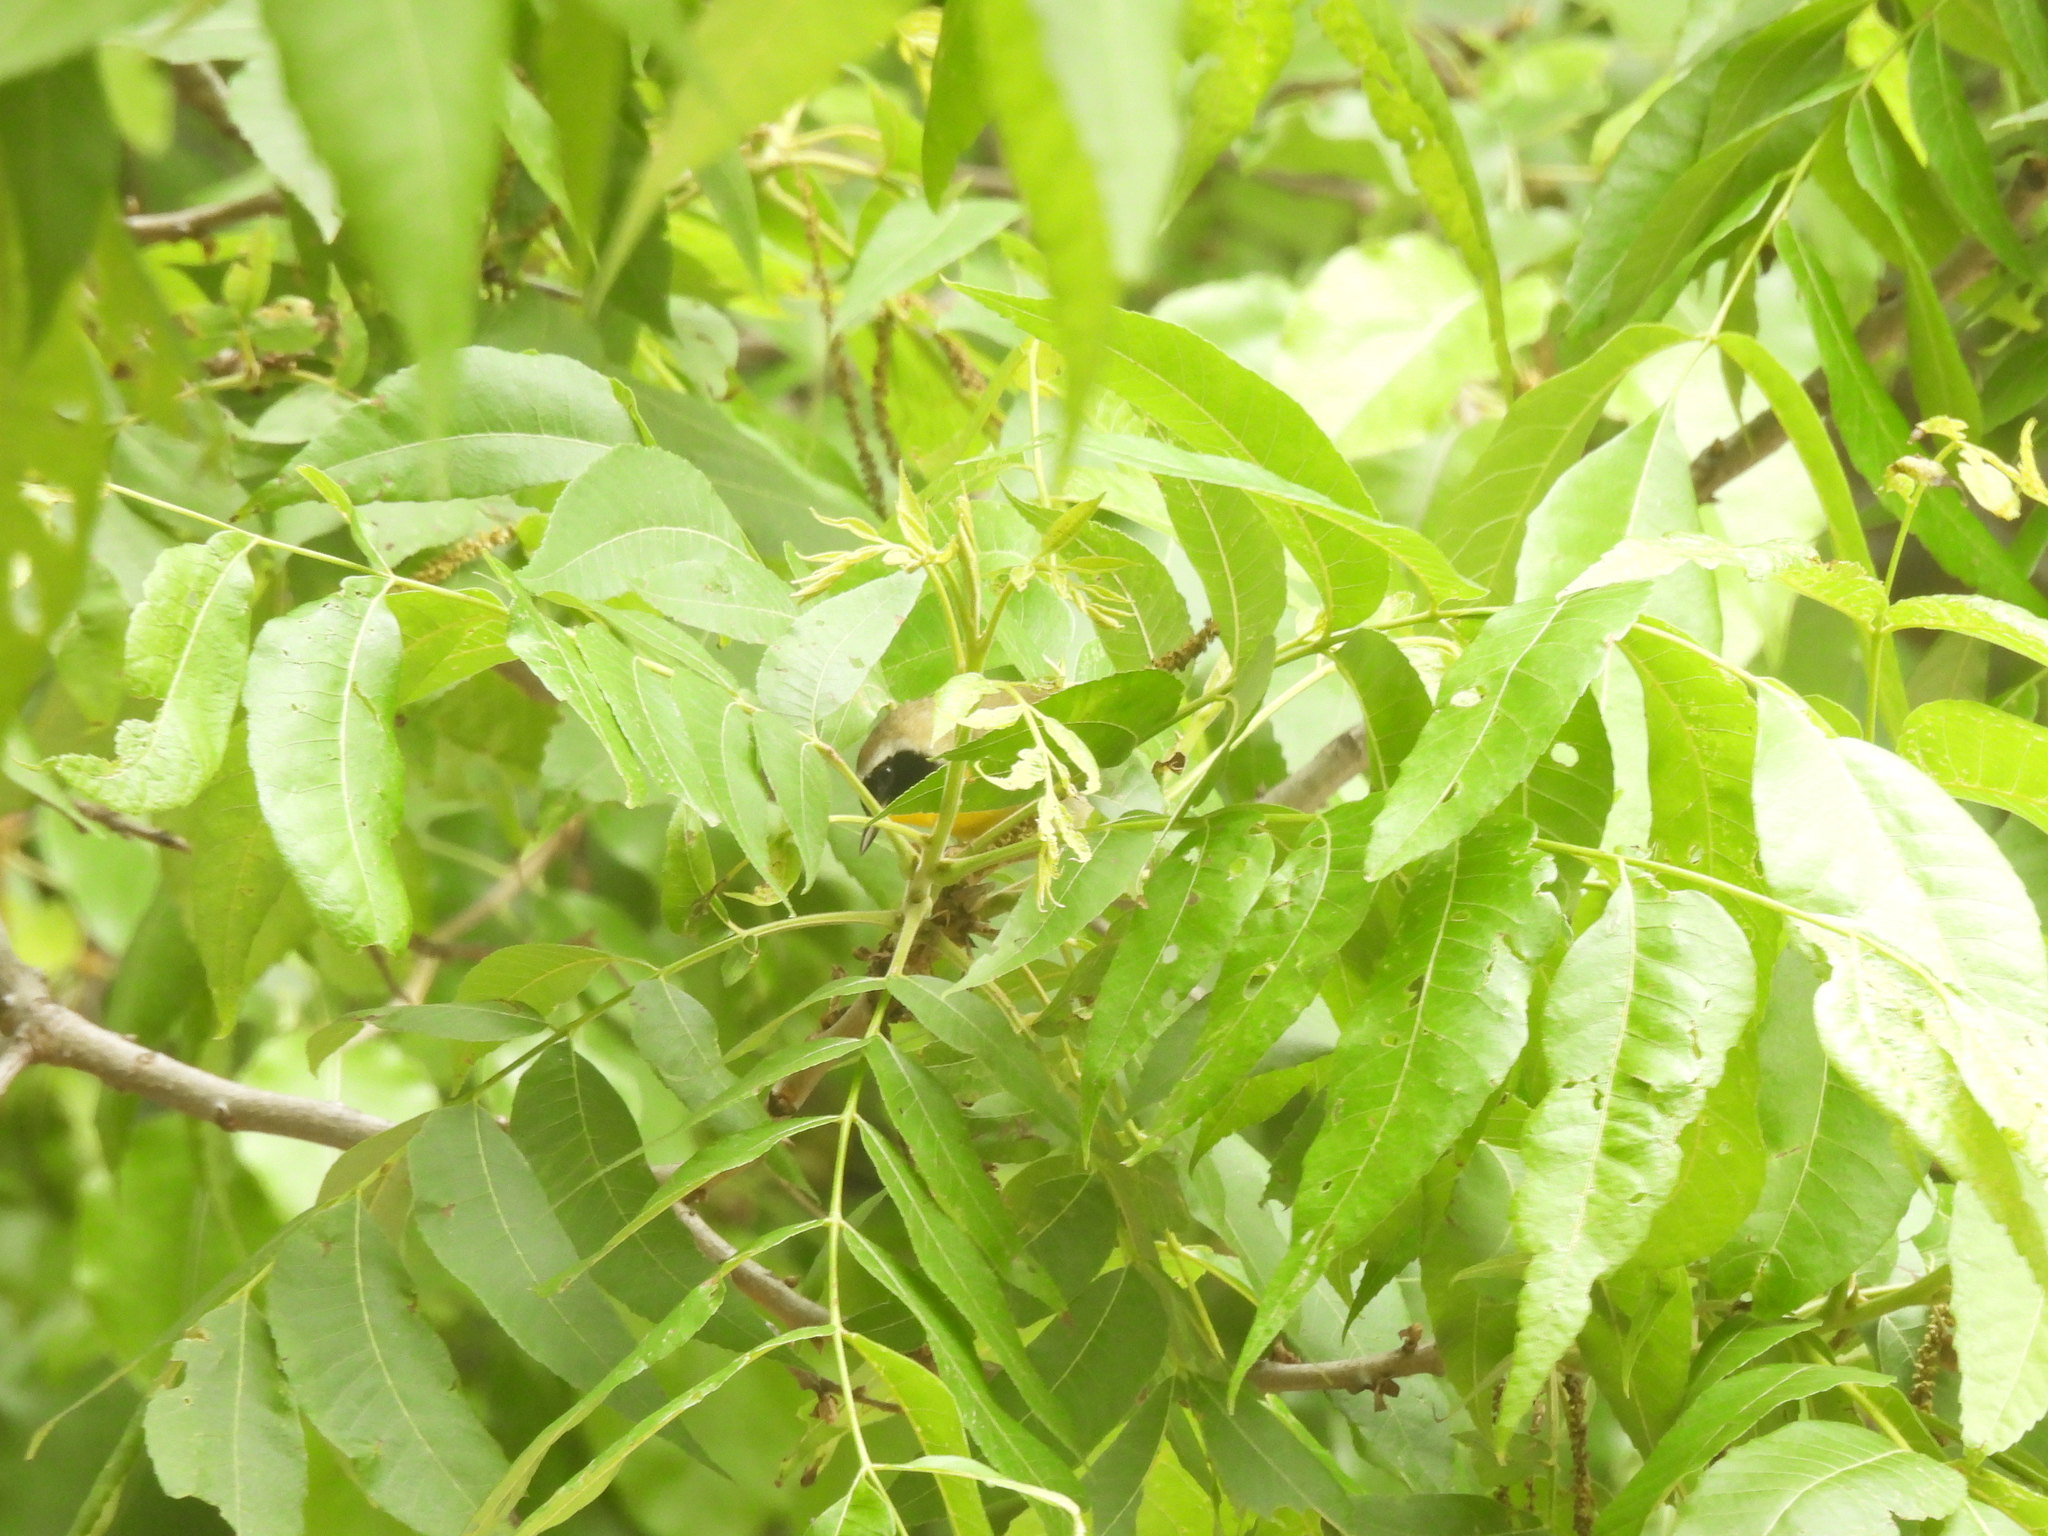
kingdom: Animalia
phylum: Chordata
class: Aves
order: Passeriformes
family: Parulidae
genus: Geothlypis
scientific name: Geothlypis trichas
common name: Common yellowthroat
